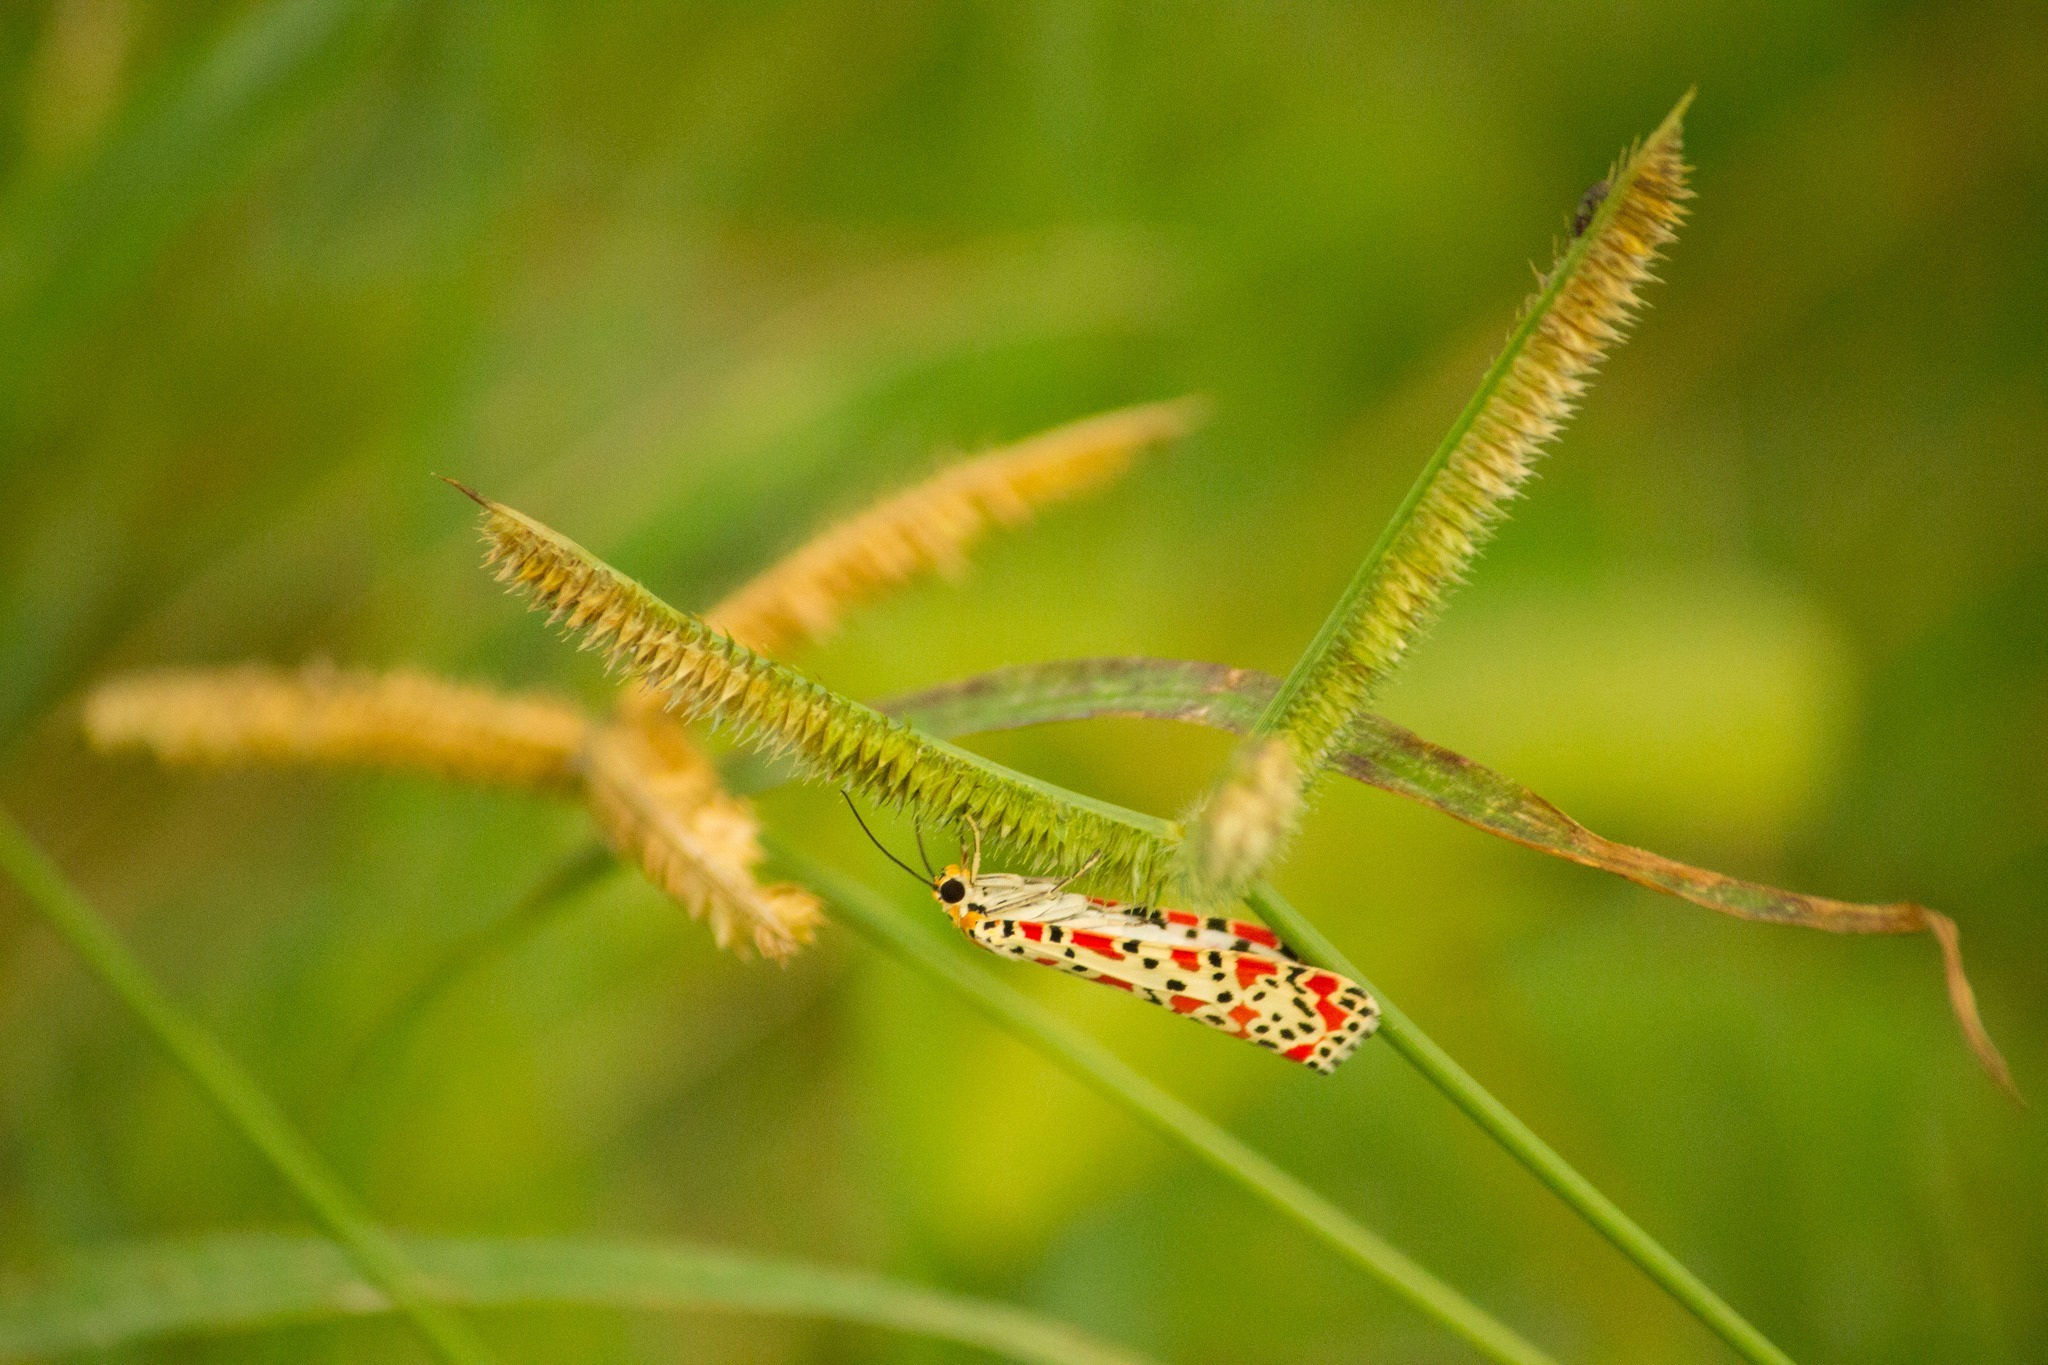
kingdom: Animalia
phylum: Arthropoda
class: Insecta
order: Lepidoptera
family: Erebidae
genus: Utetheisa
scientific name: Utetheisa lotrix
